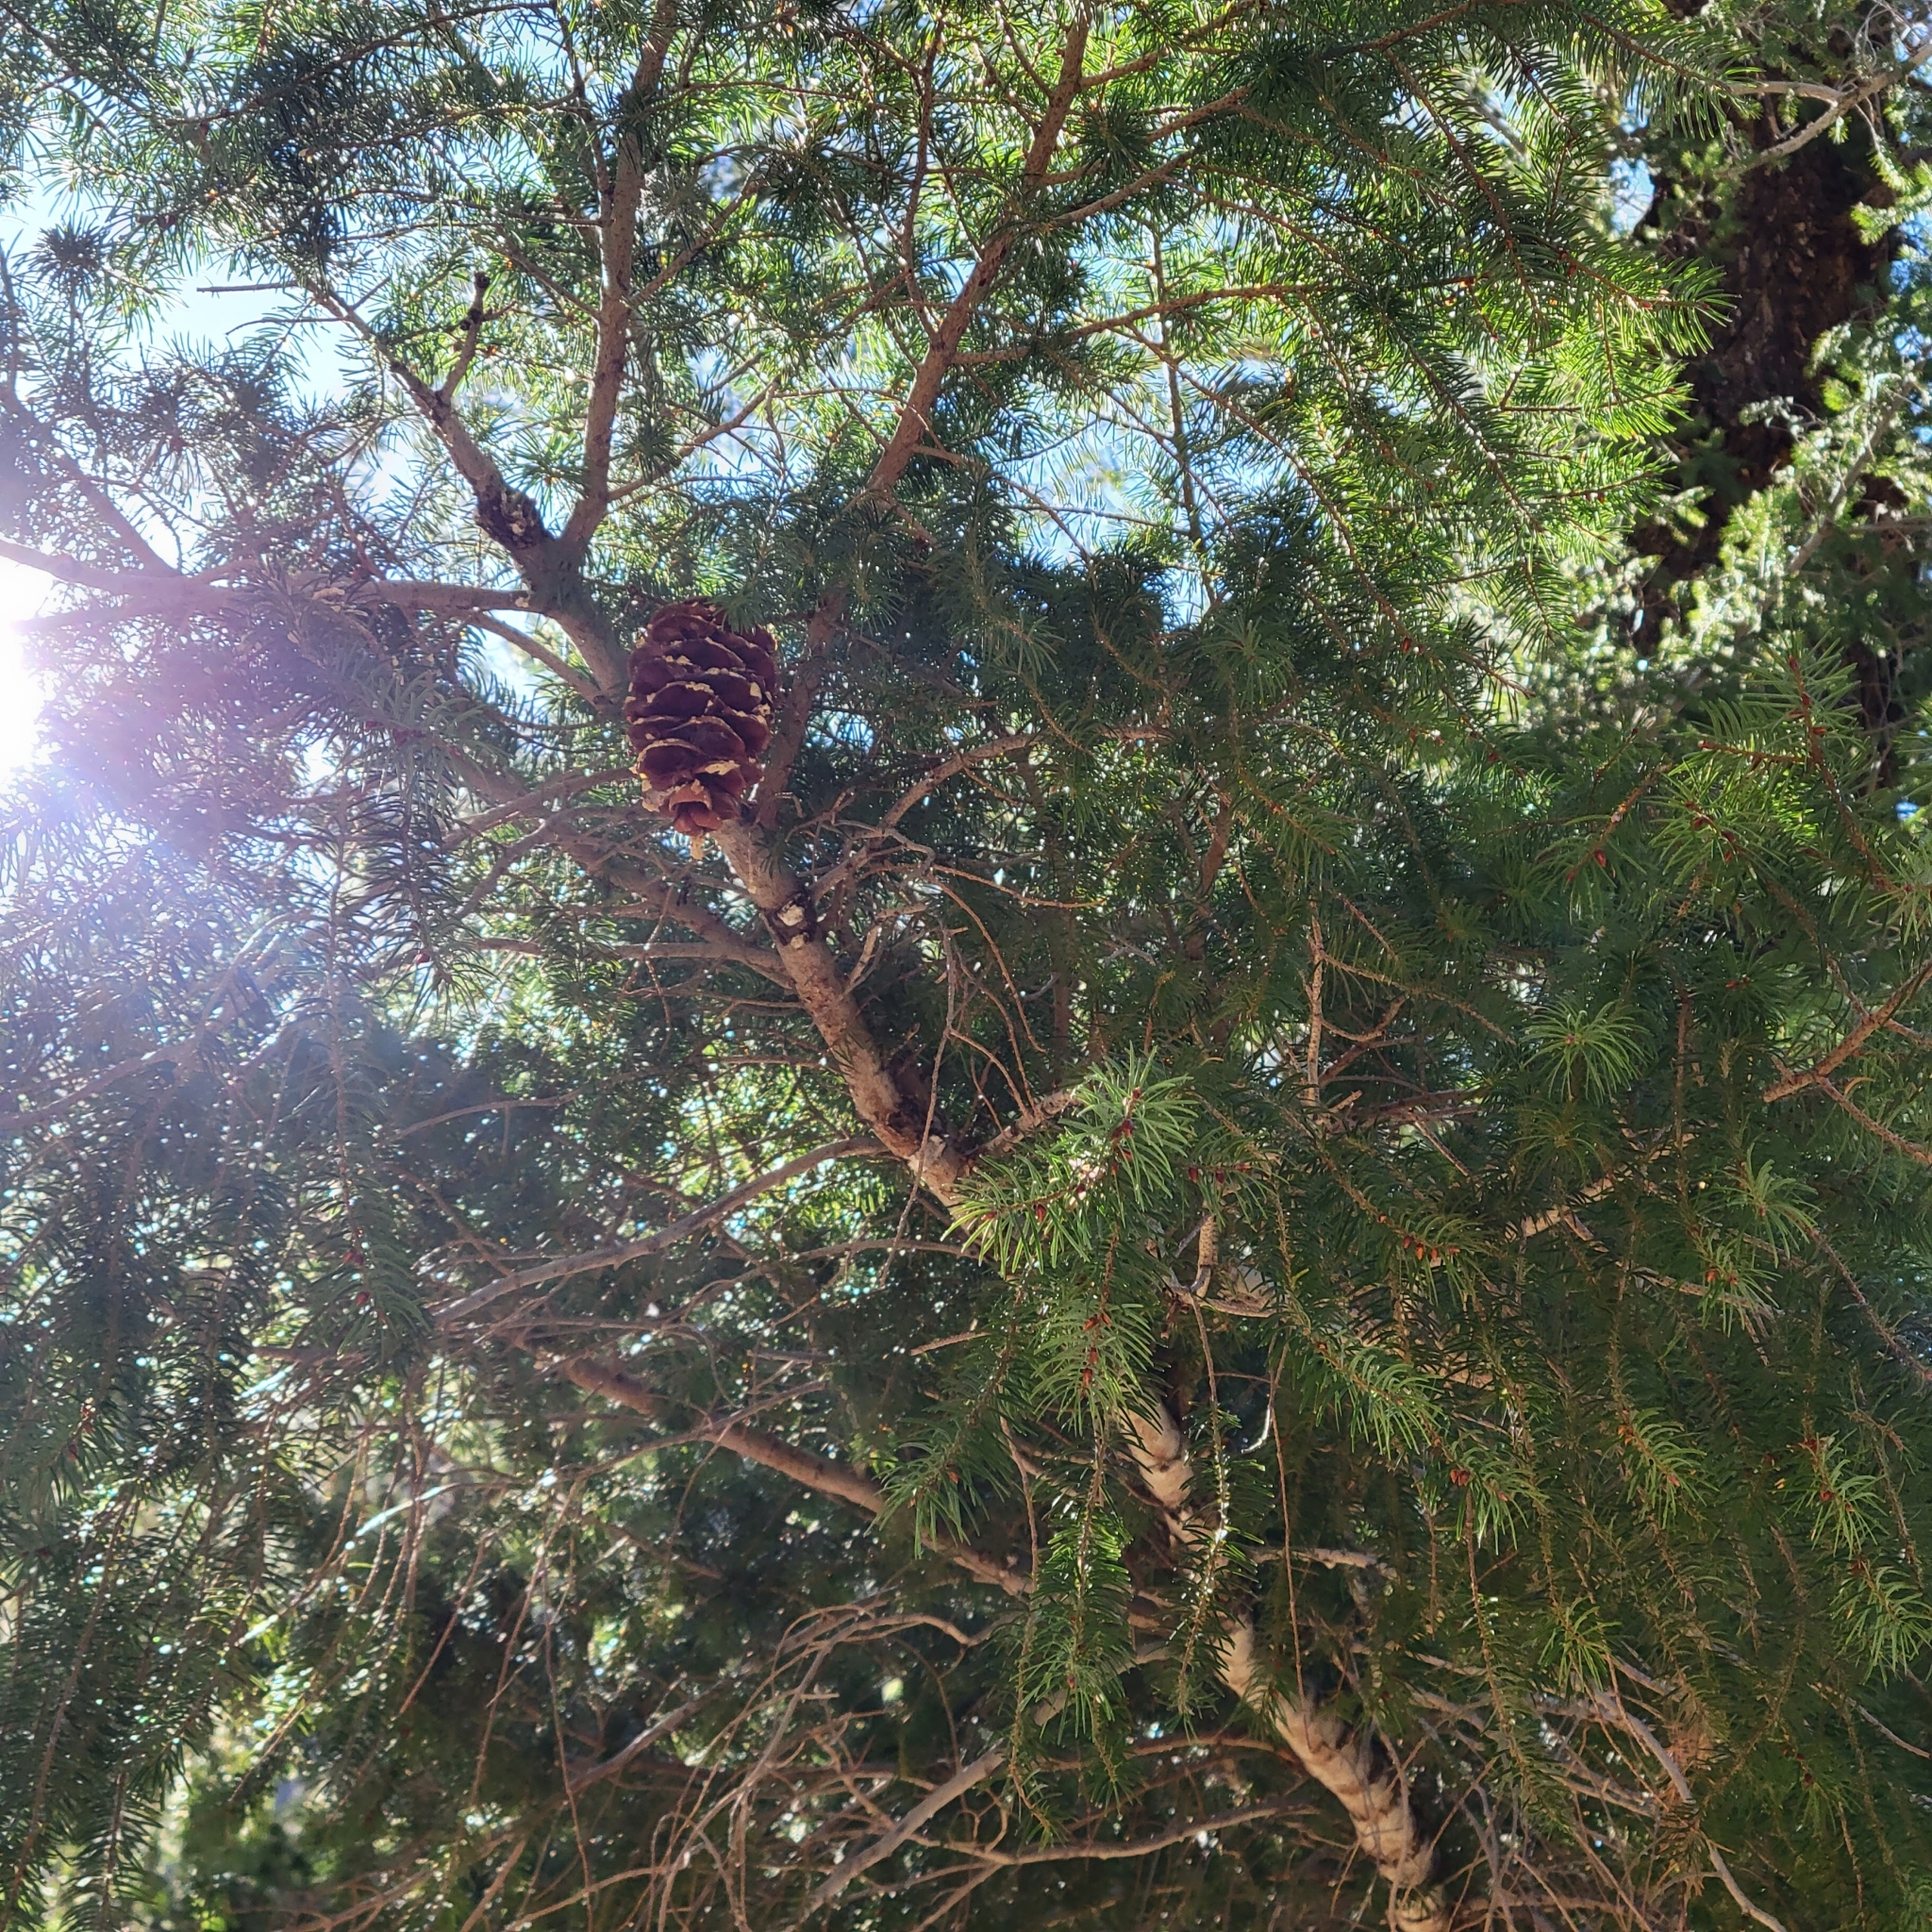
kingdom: Plantae
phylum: Tracheophyta
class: Pinopsida
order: Pinales
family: Pinaceae
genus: Pseudotsuga
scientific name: Pseudotsuga macrocarpa
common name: Big-cone douglas-fir
